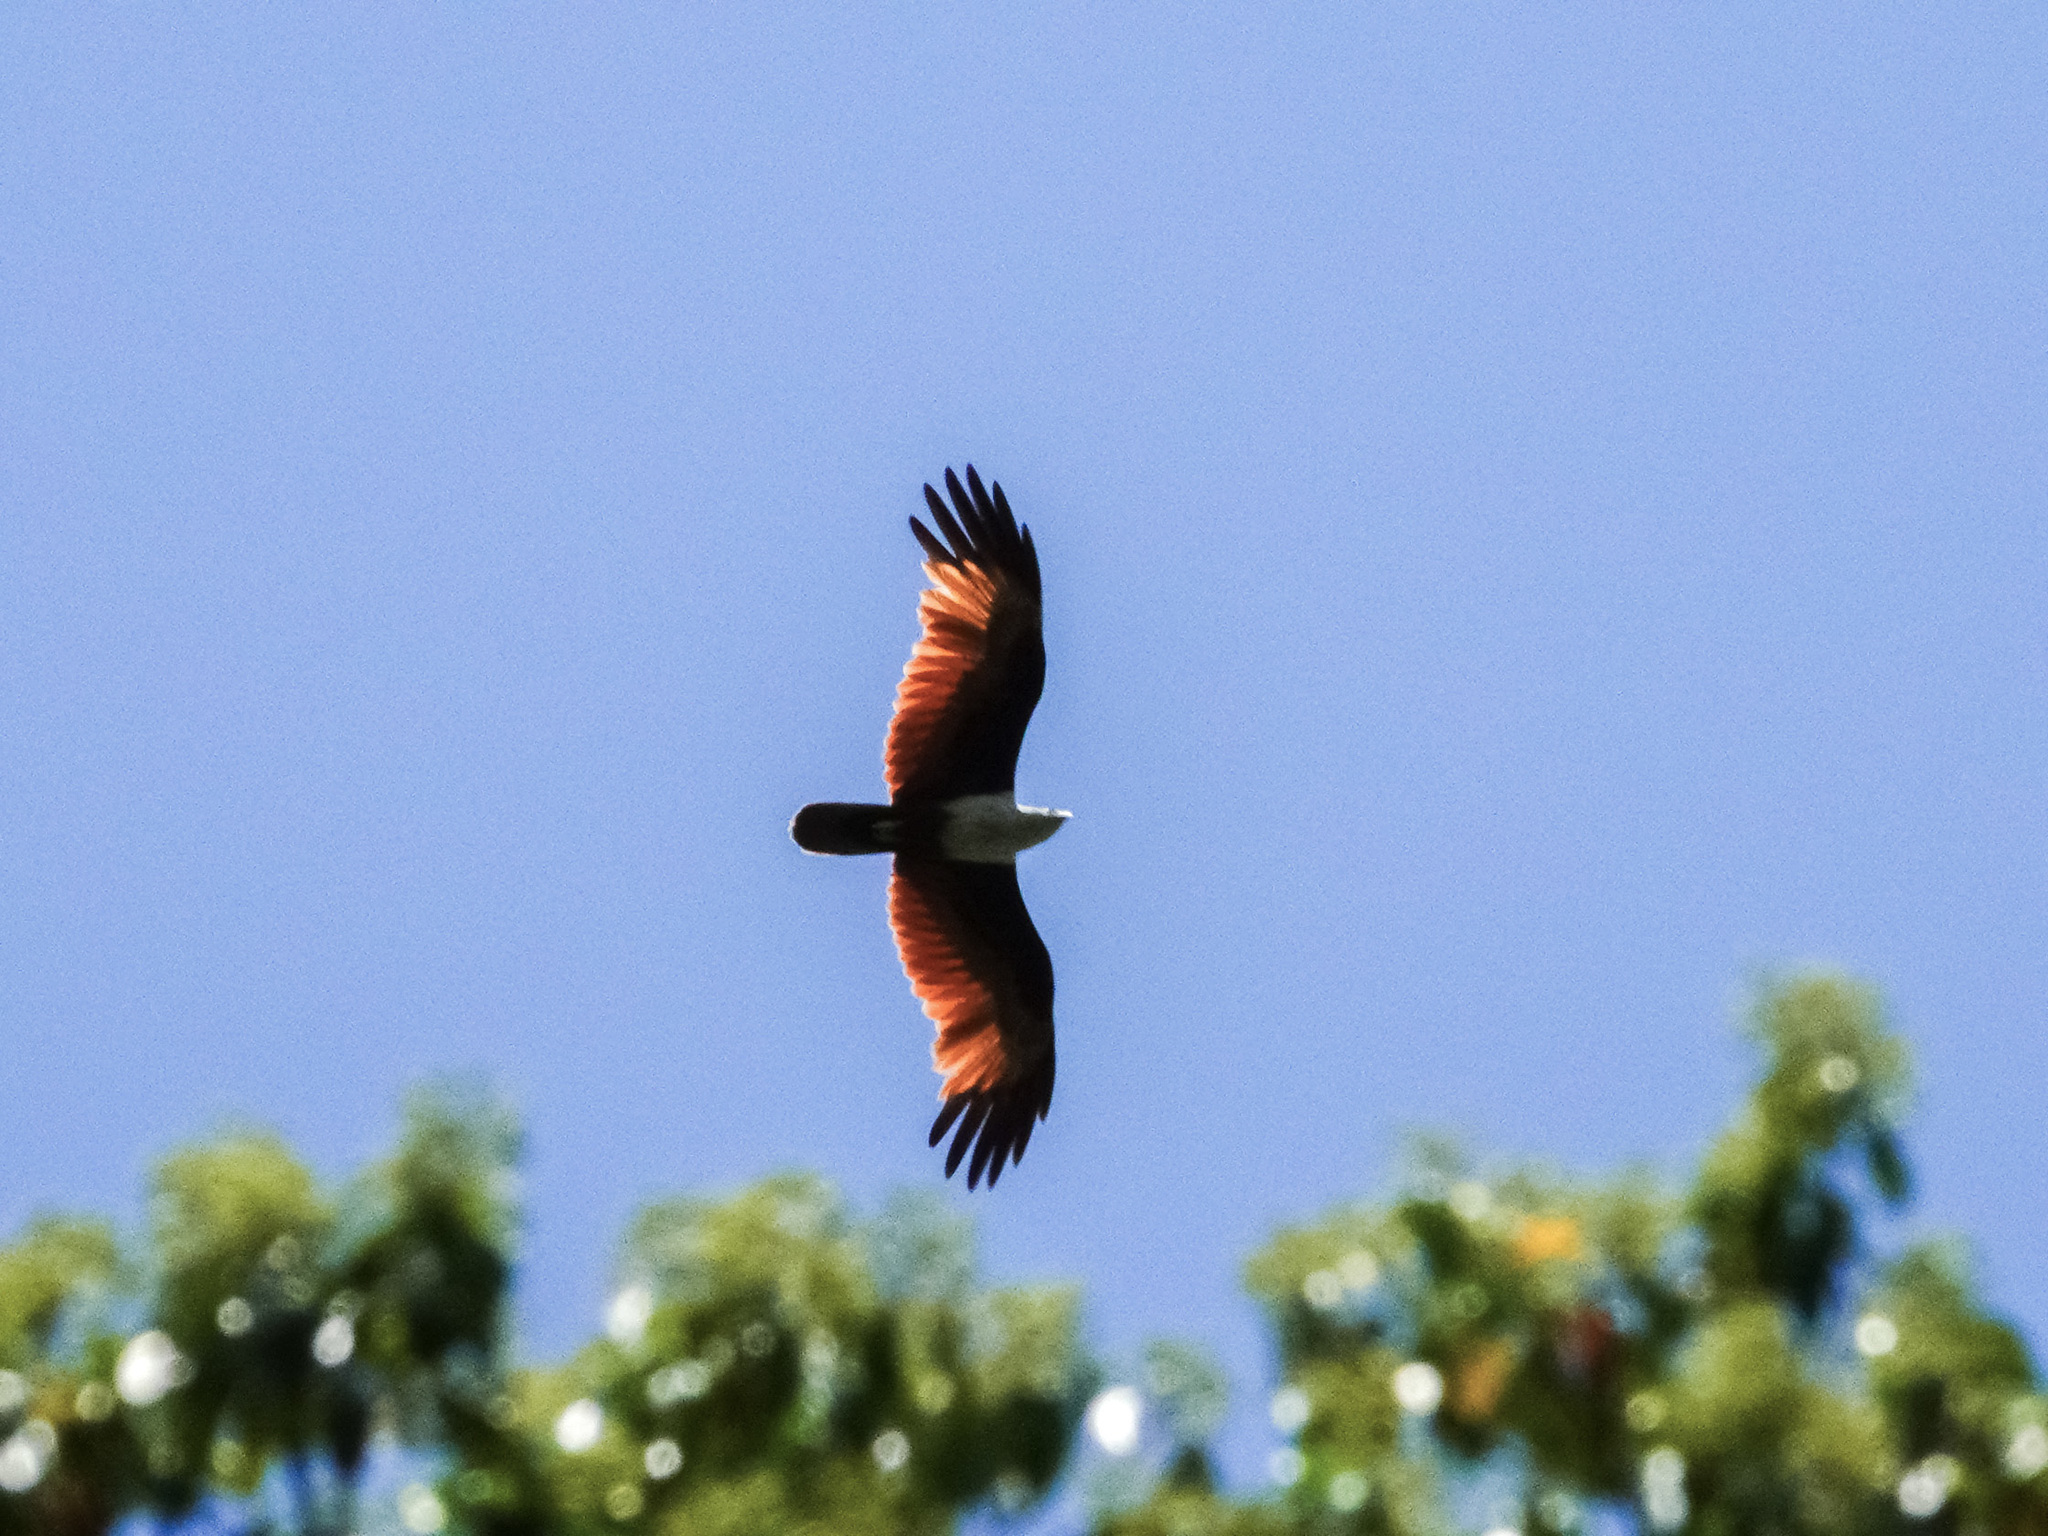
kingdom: Animalia
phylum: Chordata
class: Aves
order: Accipitriformes
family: Accipitridae
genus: Haliastur
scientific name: Haliastur indus
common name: Brahminy kite
